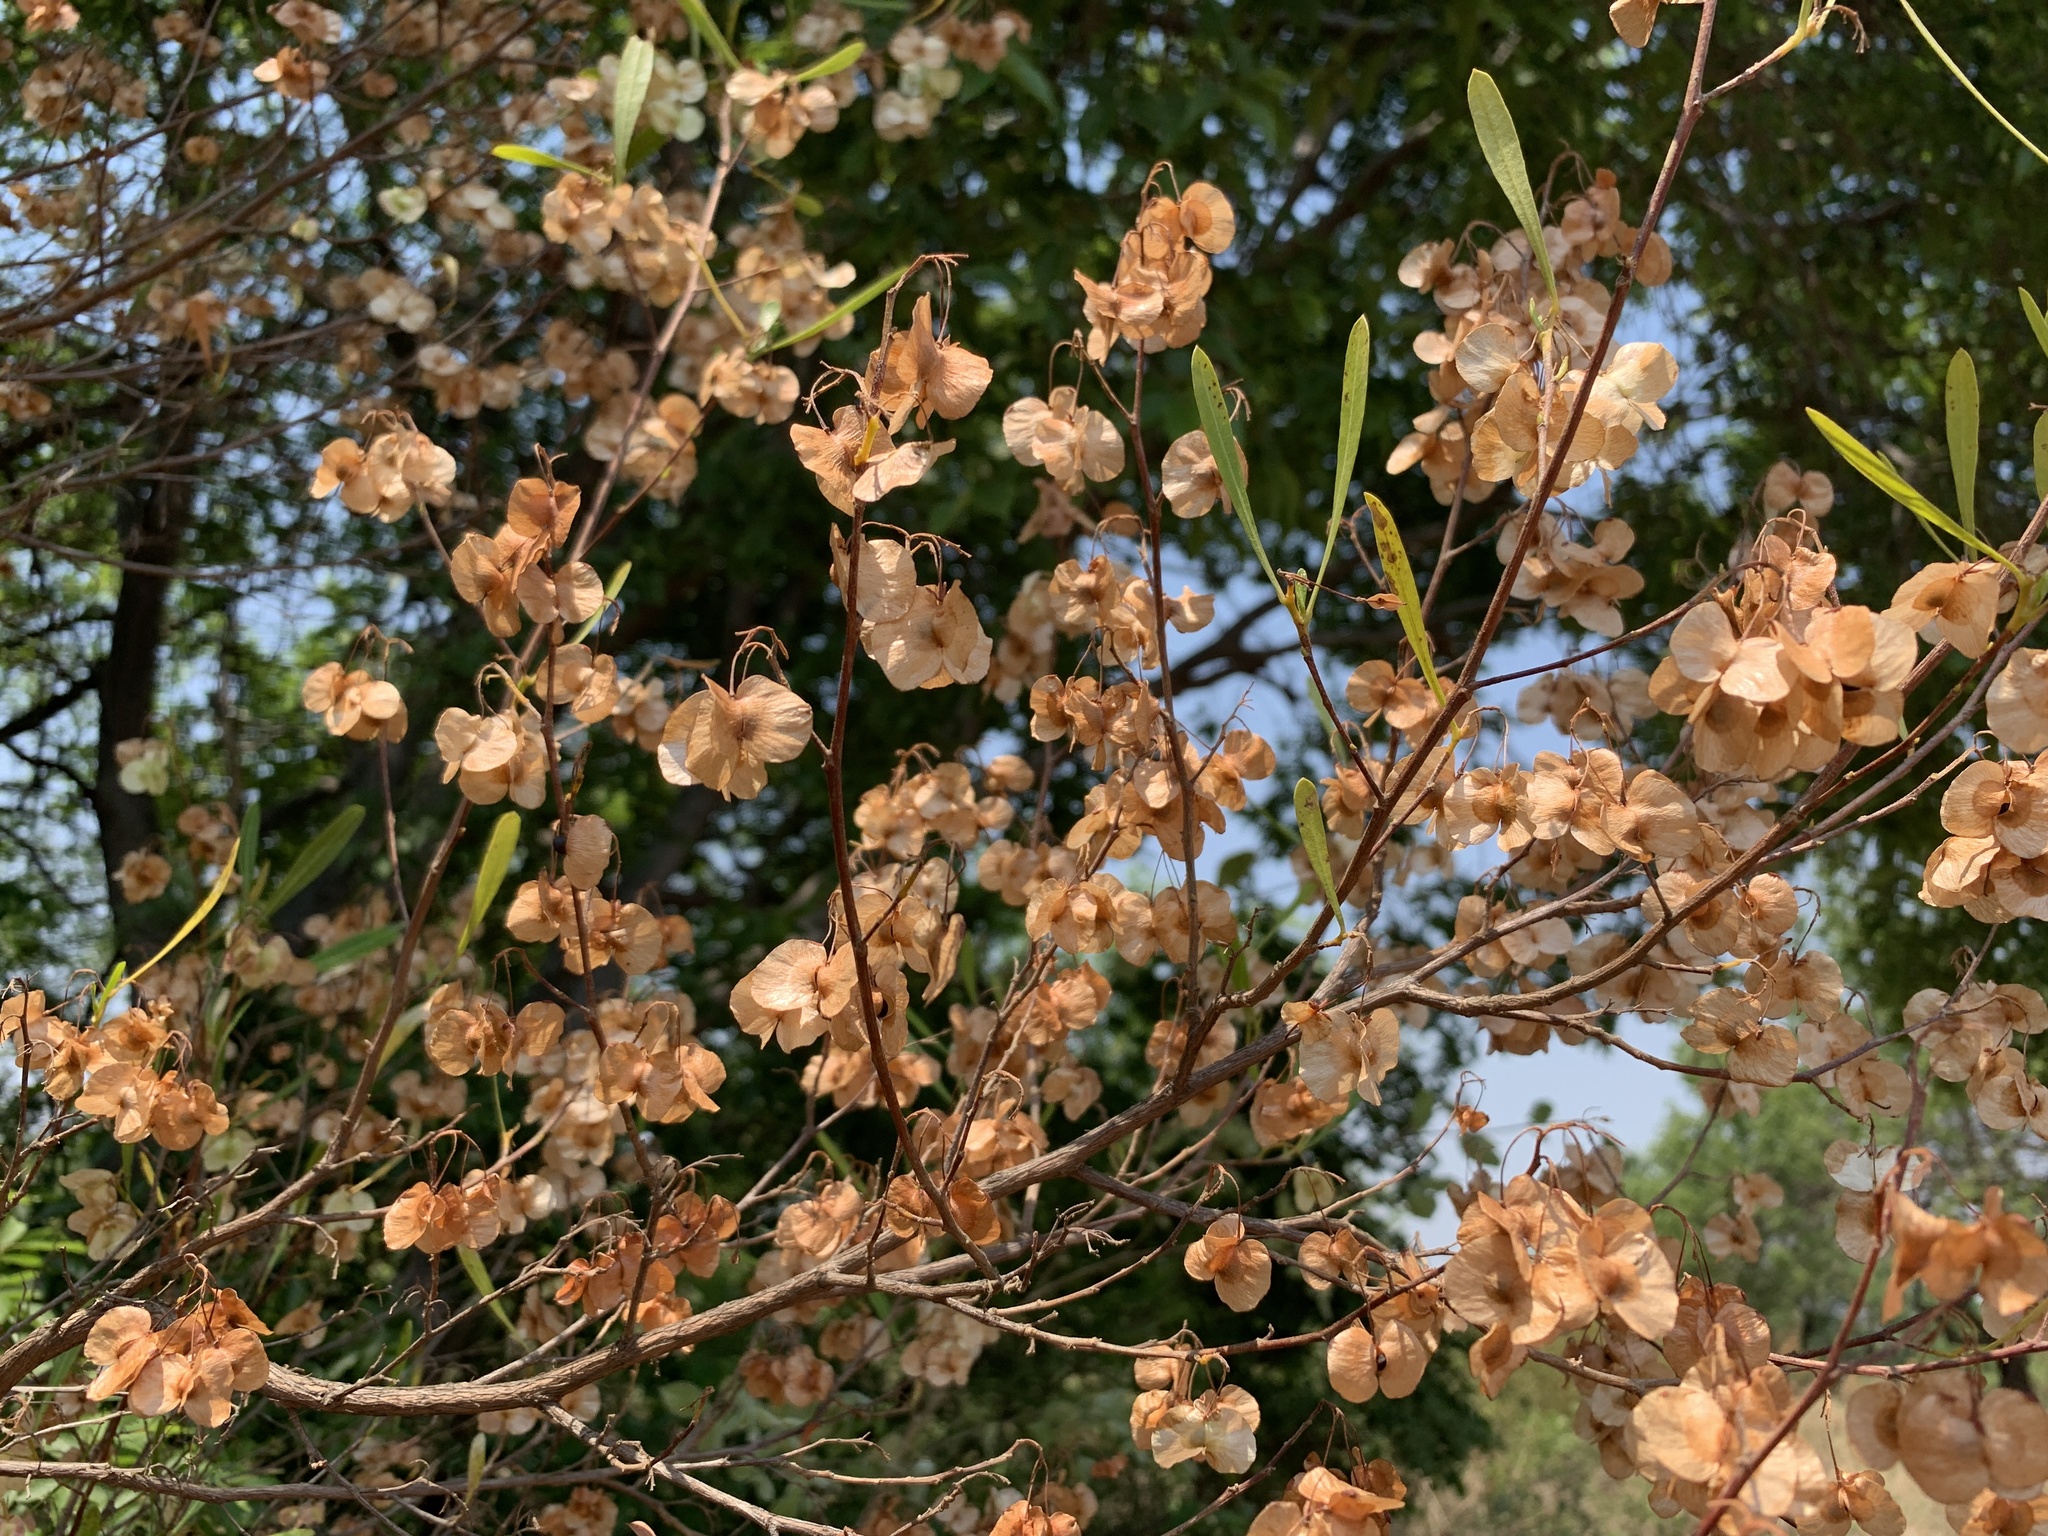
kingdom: Plantae
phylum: Tracheophyta
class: Magnoliopsida
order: Sapindales
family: Sapindaceae
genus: Dodonaea
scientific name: Dodonaea viscosa
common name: Hopbush
